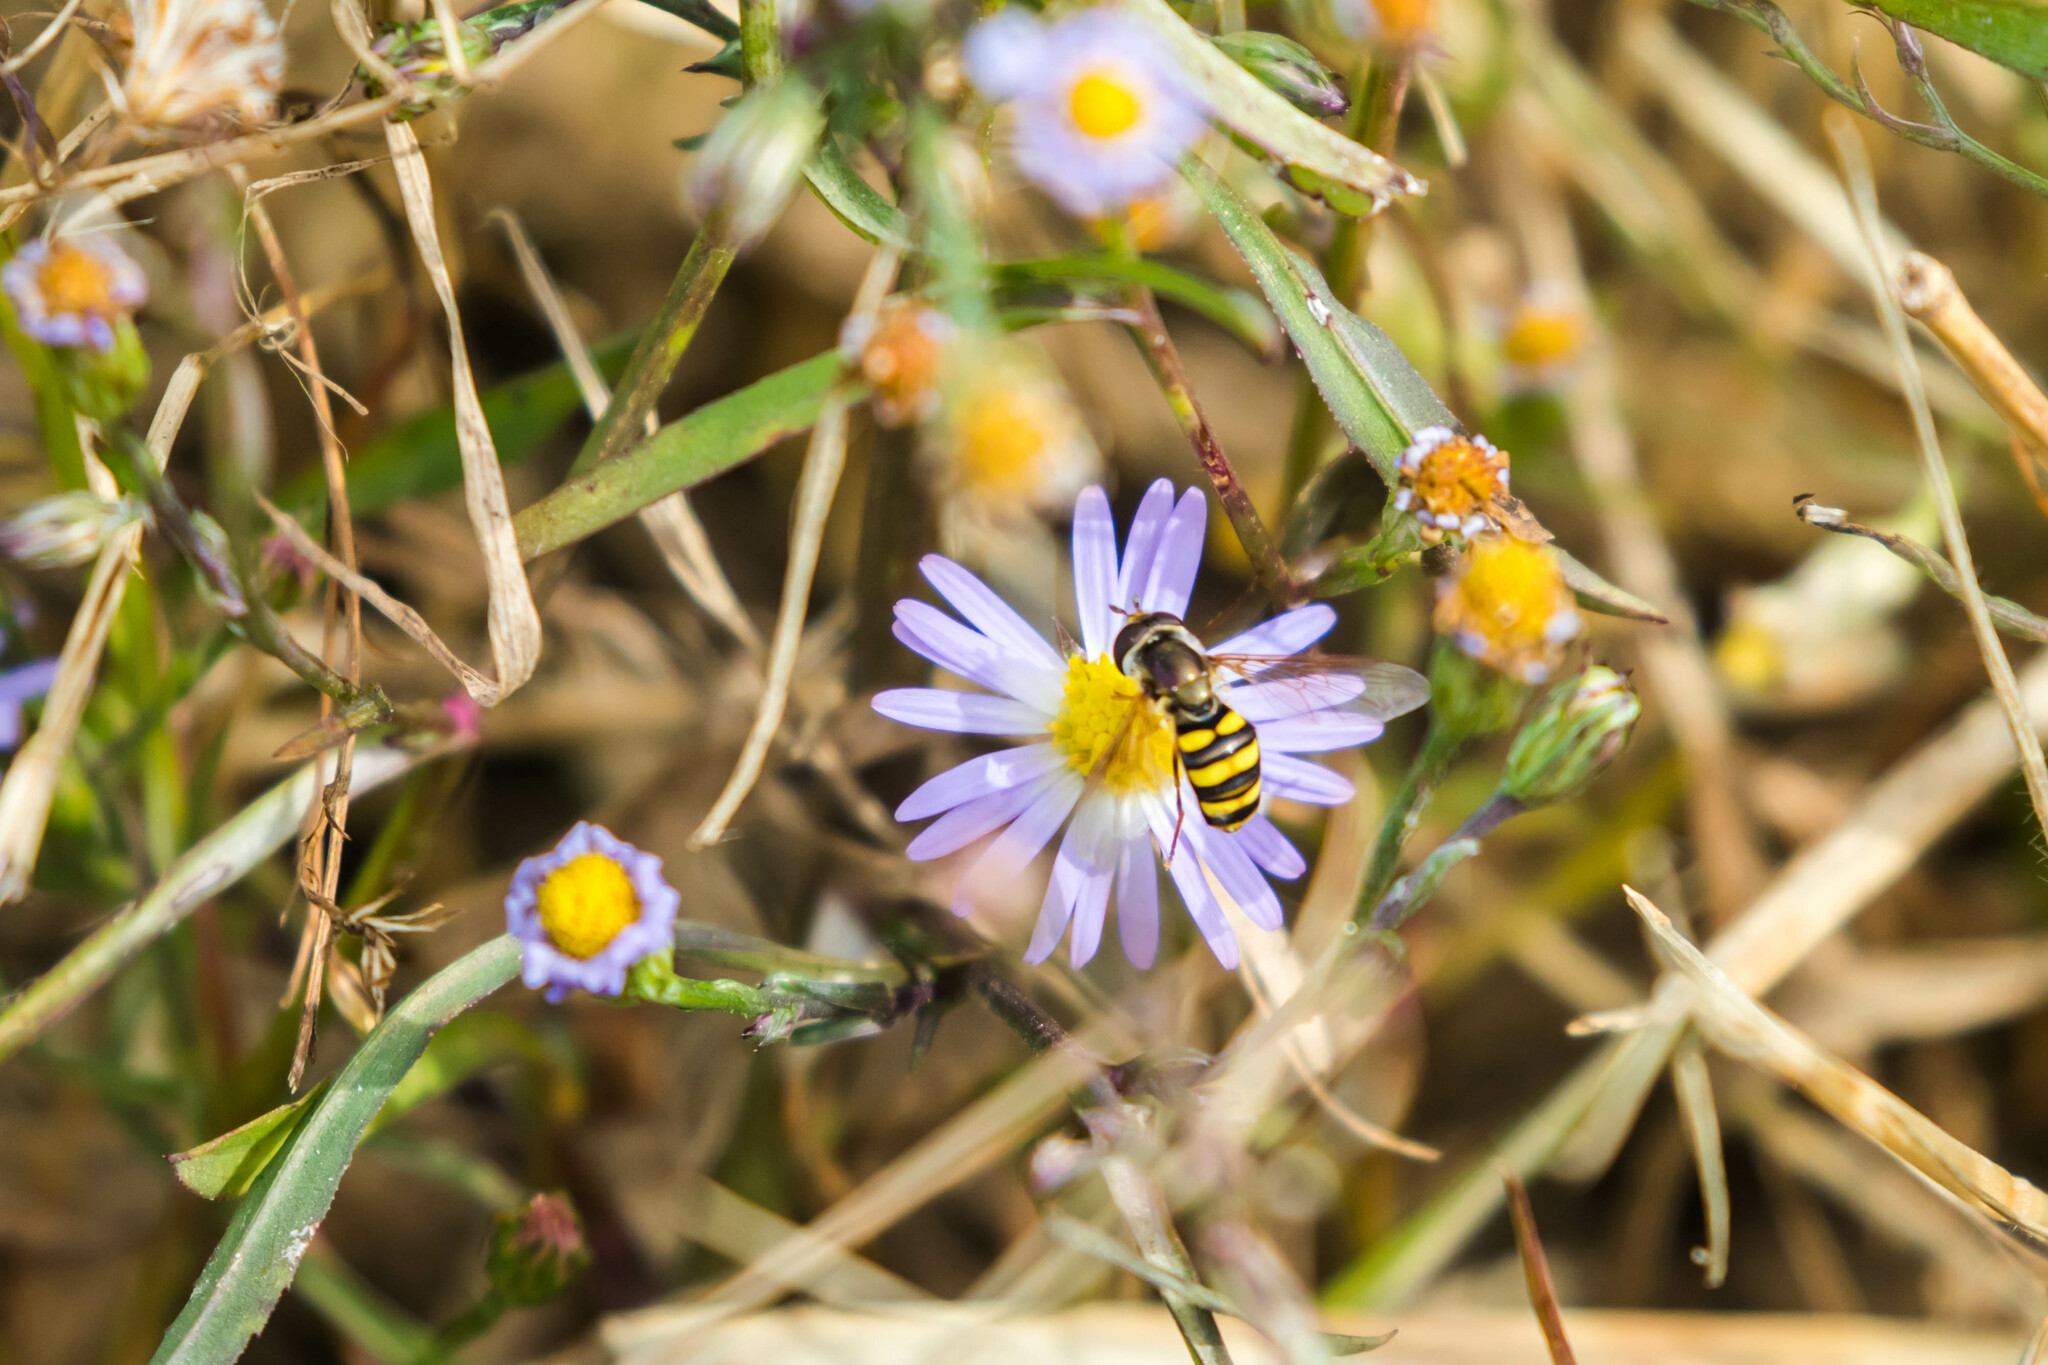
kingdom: Animalia
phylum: Arthropoda
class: Insecta
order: Diptera
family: Syrphidae
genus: Eupeodes
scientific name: Eupeodes
